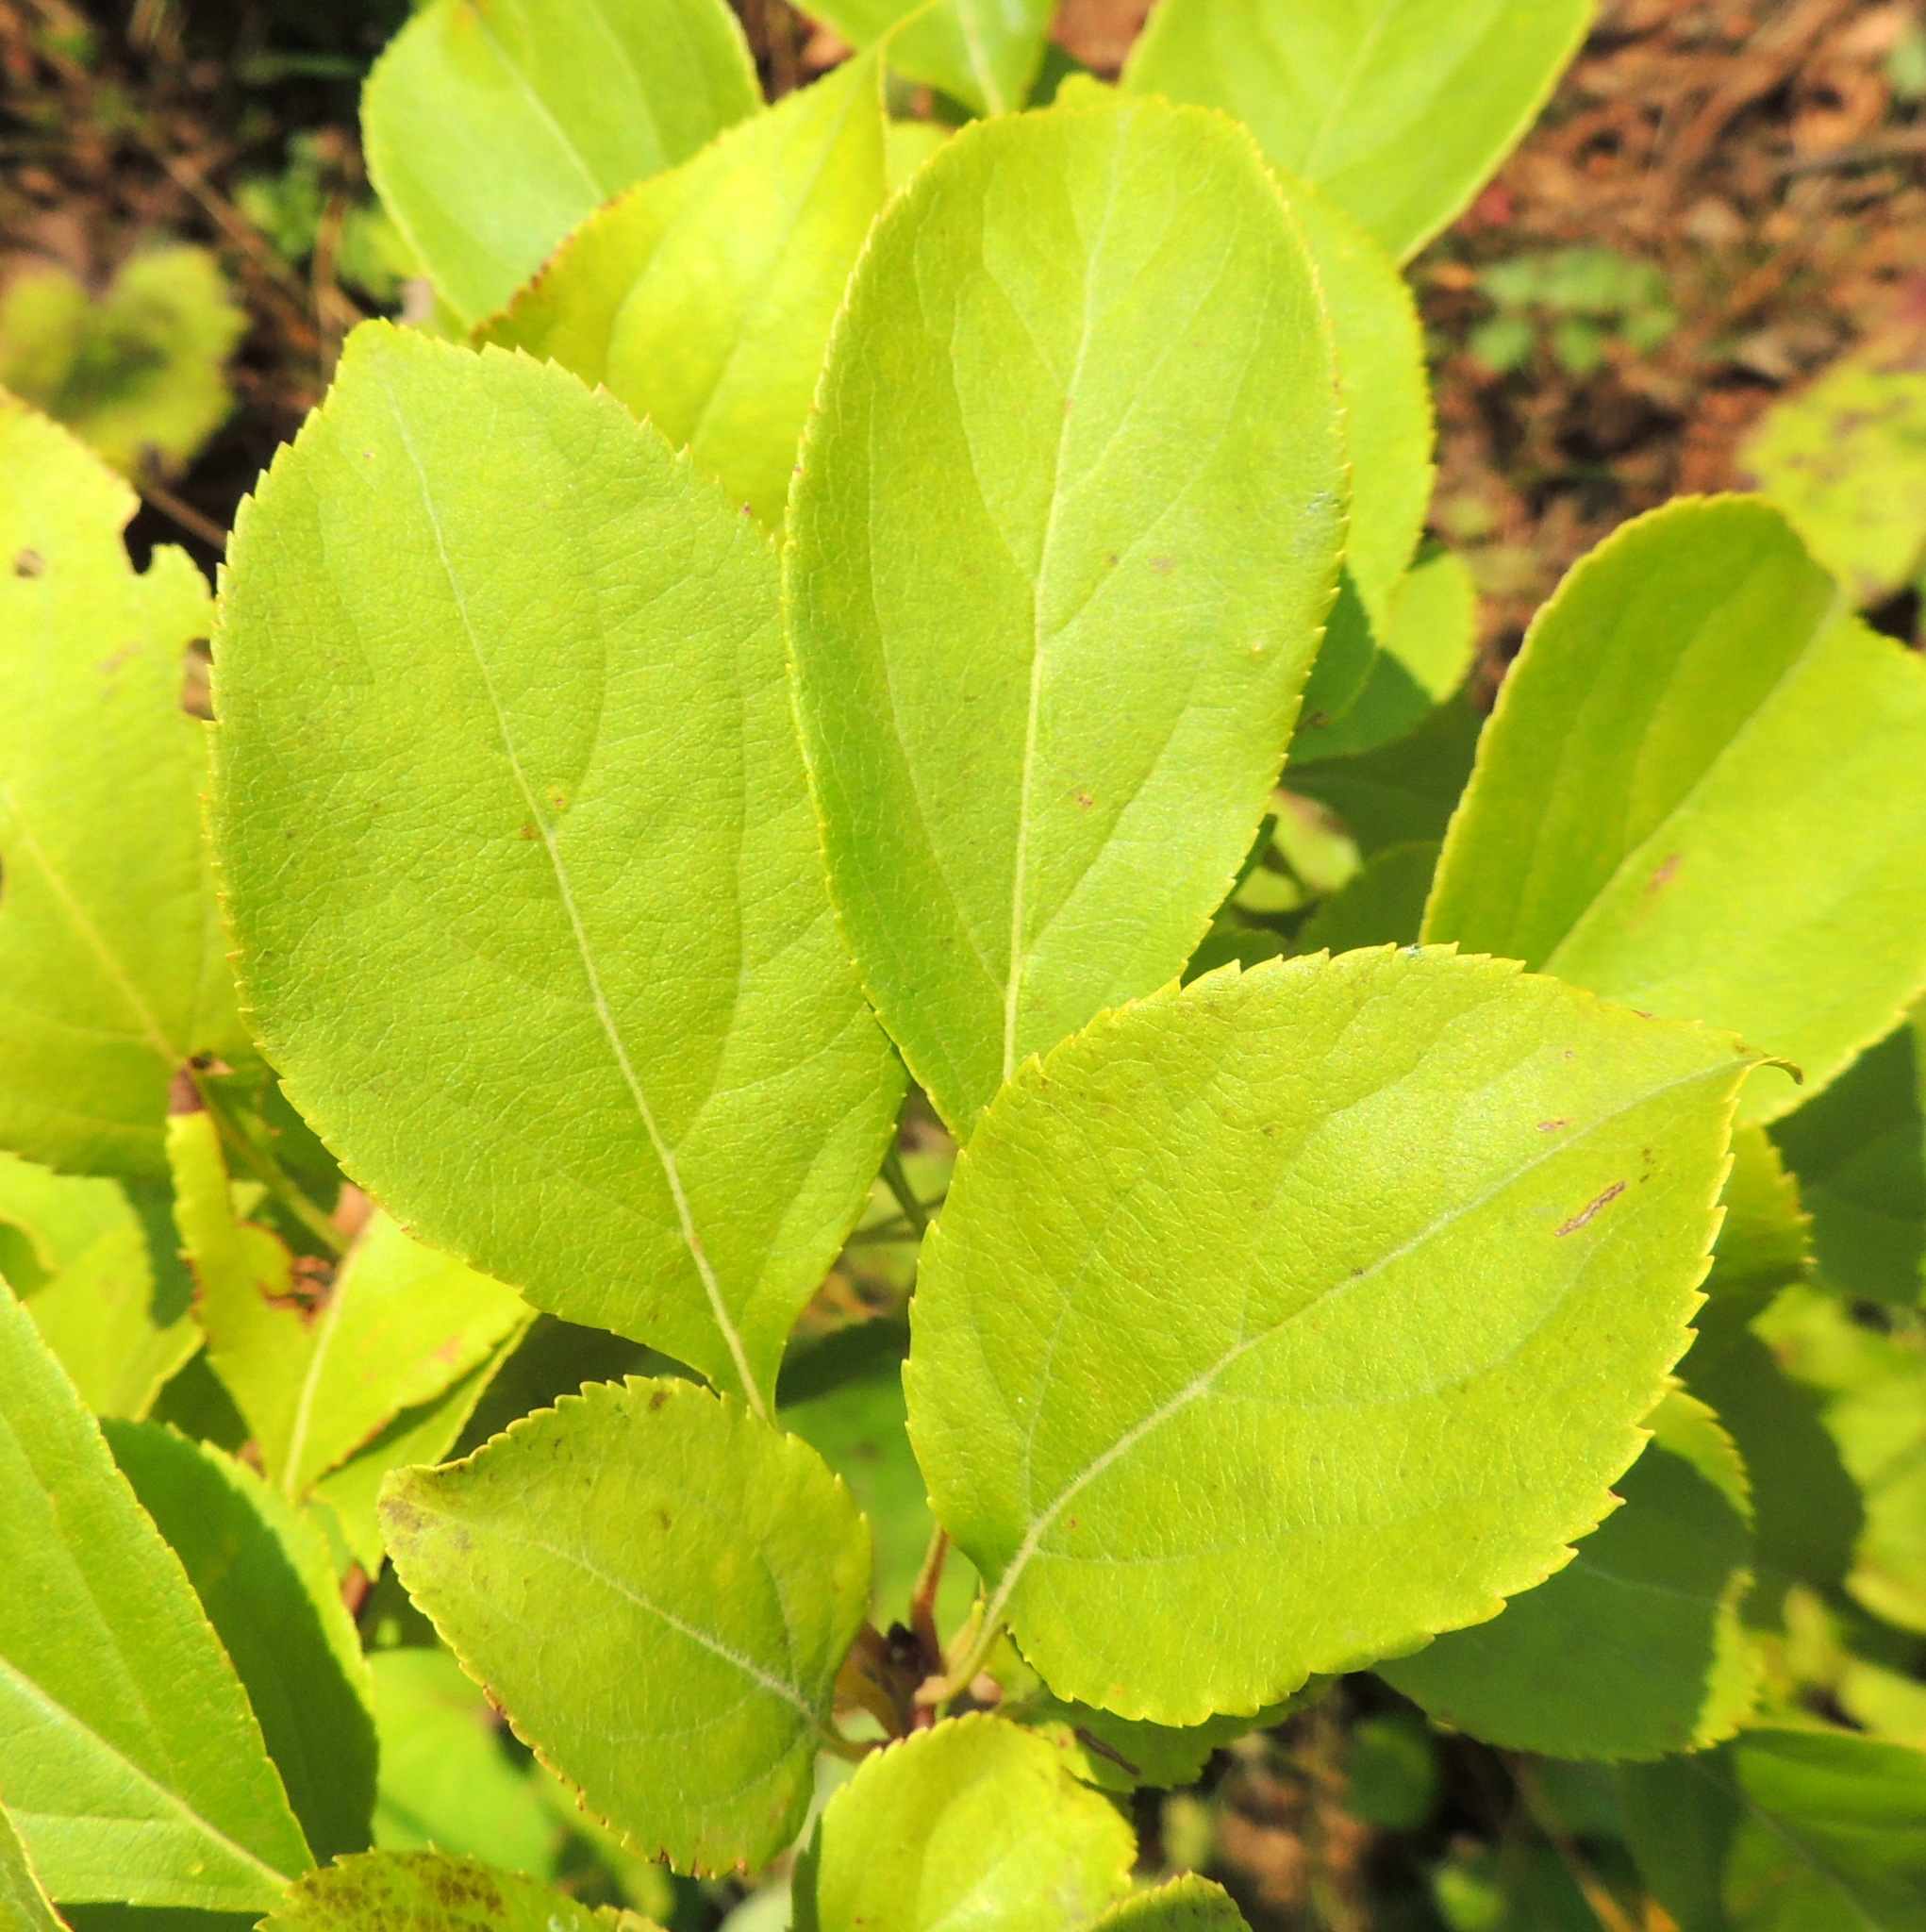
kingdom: Plantae
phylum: Tracheophyta
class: Magnoliopsida
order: Rosales
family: Rosaceae
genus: Malus
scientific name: Malus baccata
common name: Siberian crab
